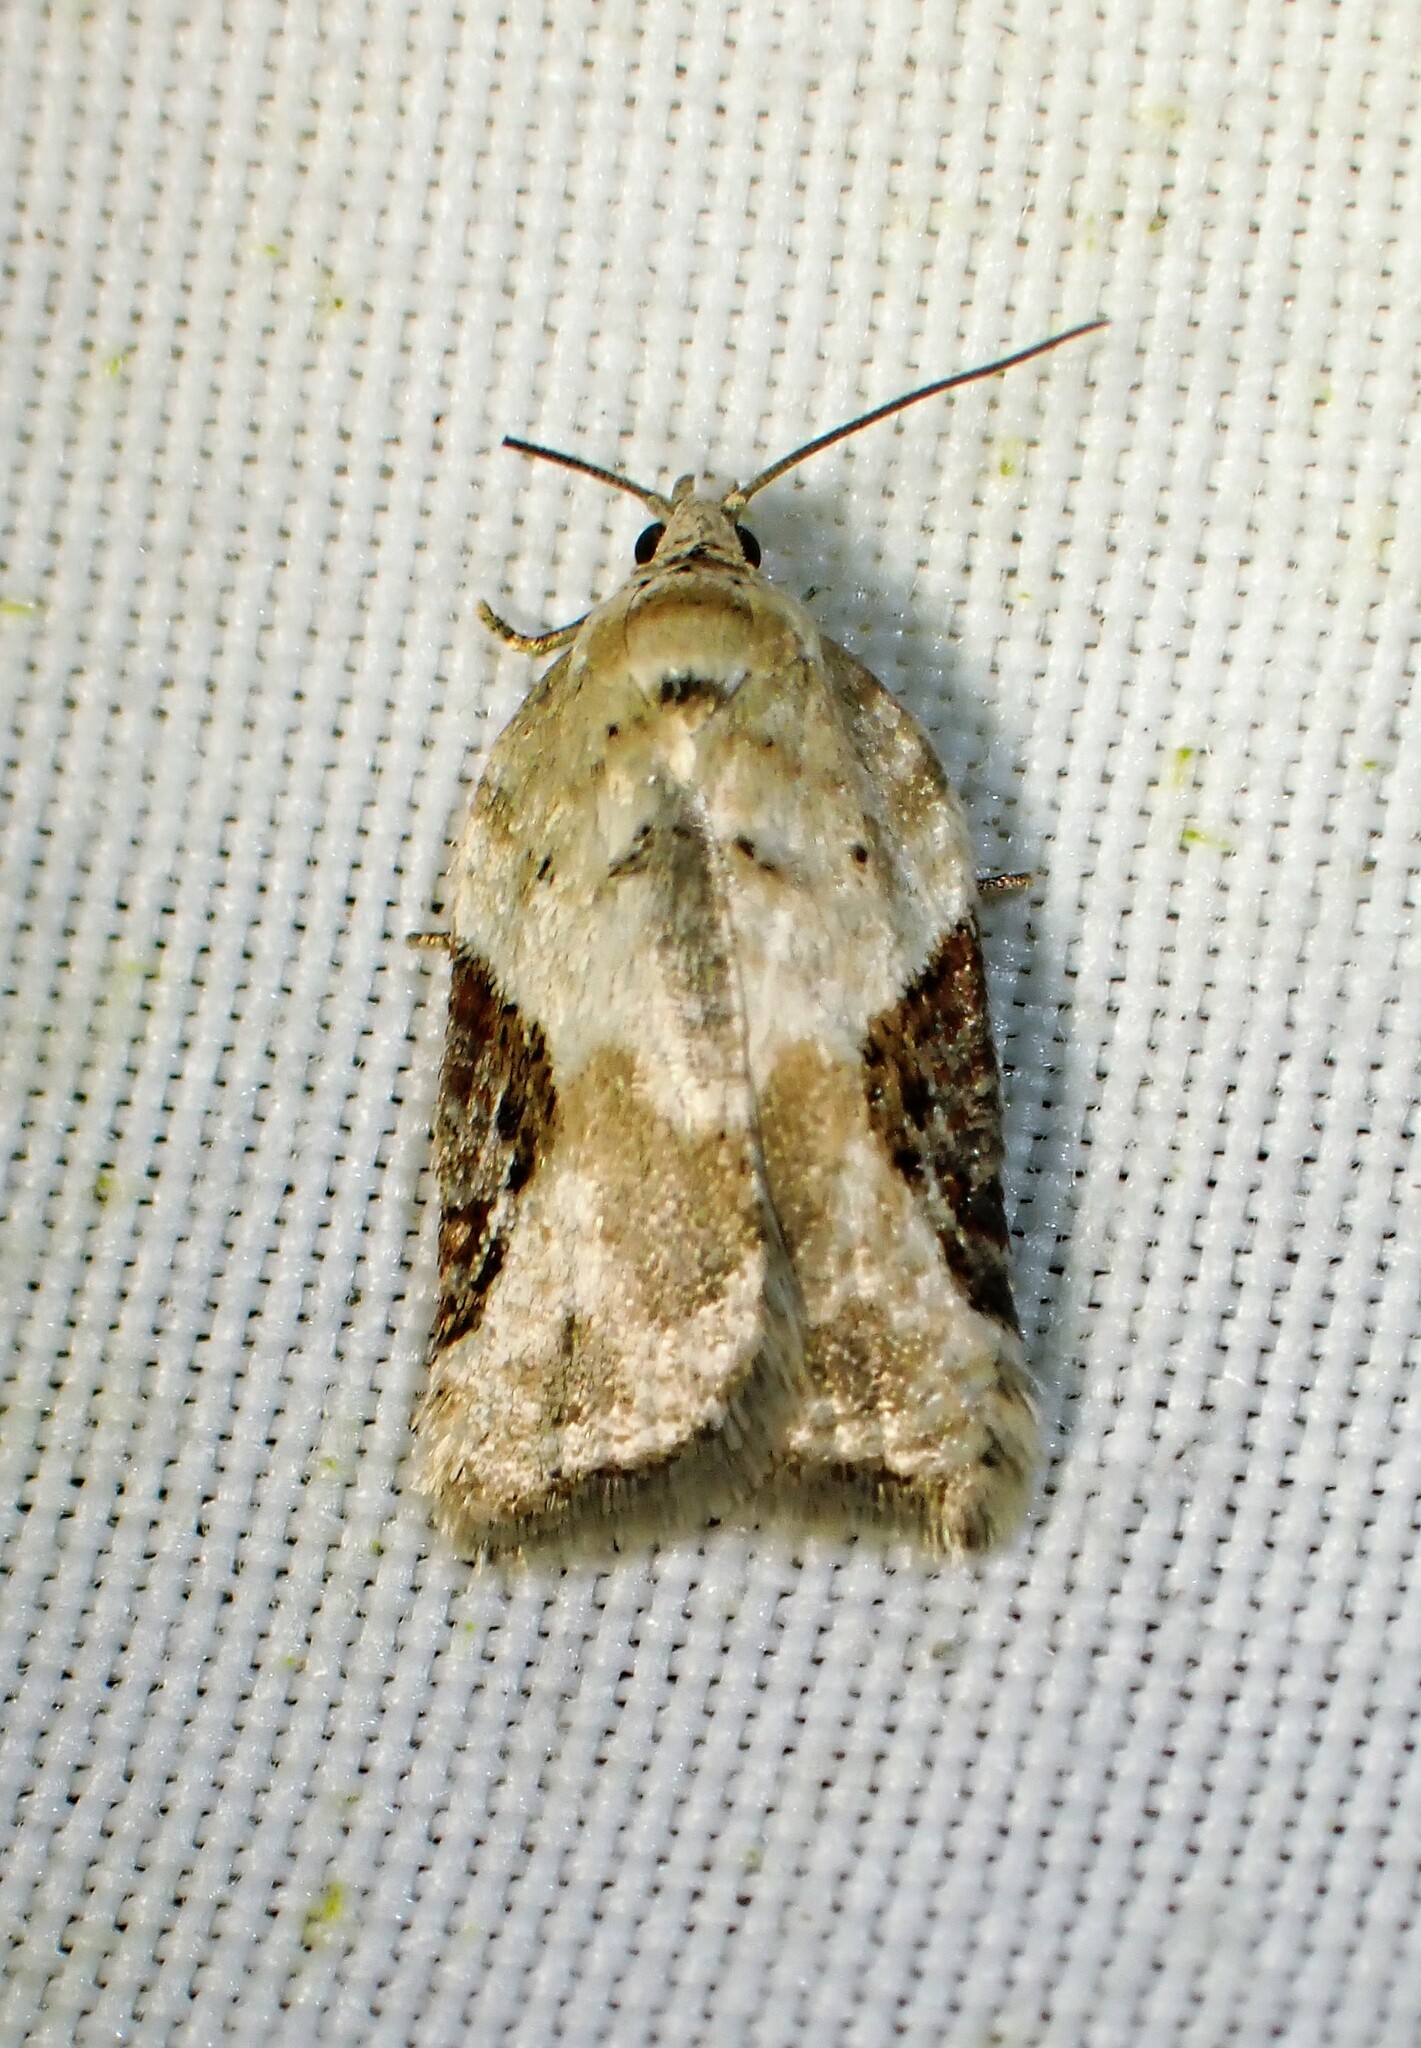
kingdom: Animalia
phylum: Arthropoda
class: Insecta
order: Lepidoptera
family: Tortricidae
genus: Acleris
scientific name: Acleris forbesana
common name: Forbes' acleris moth
